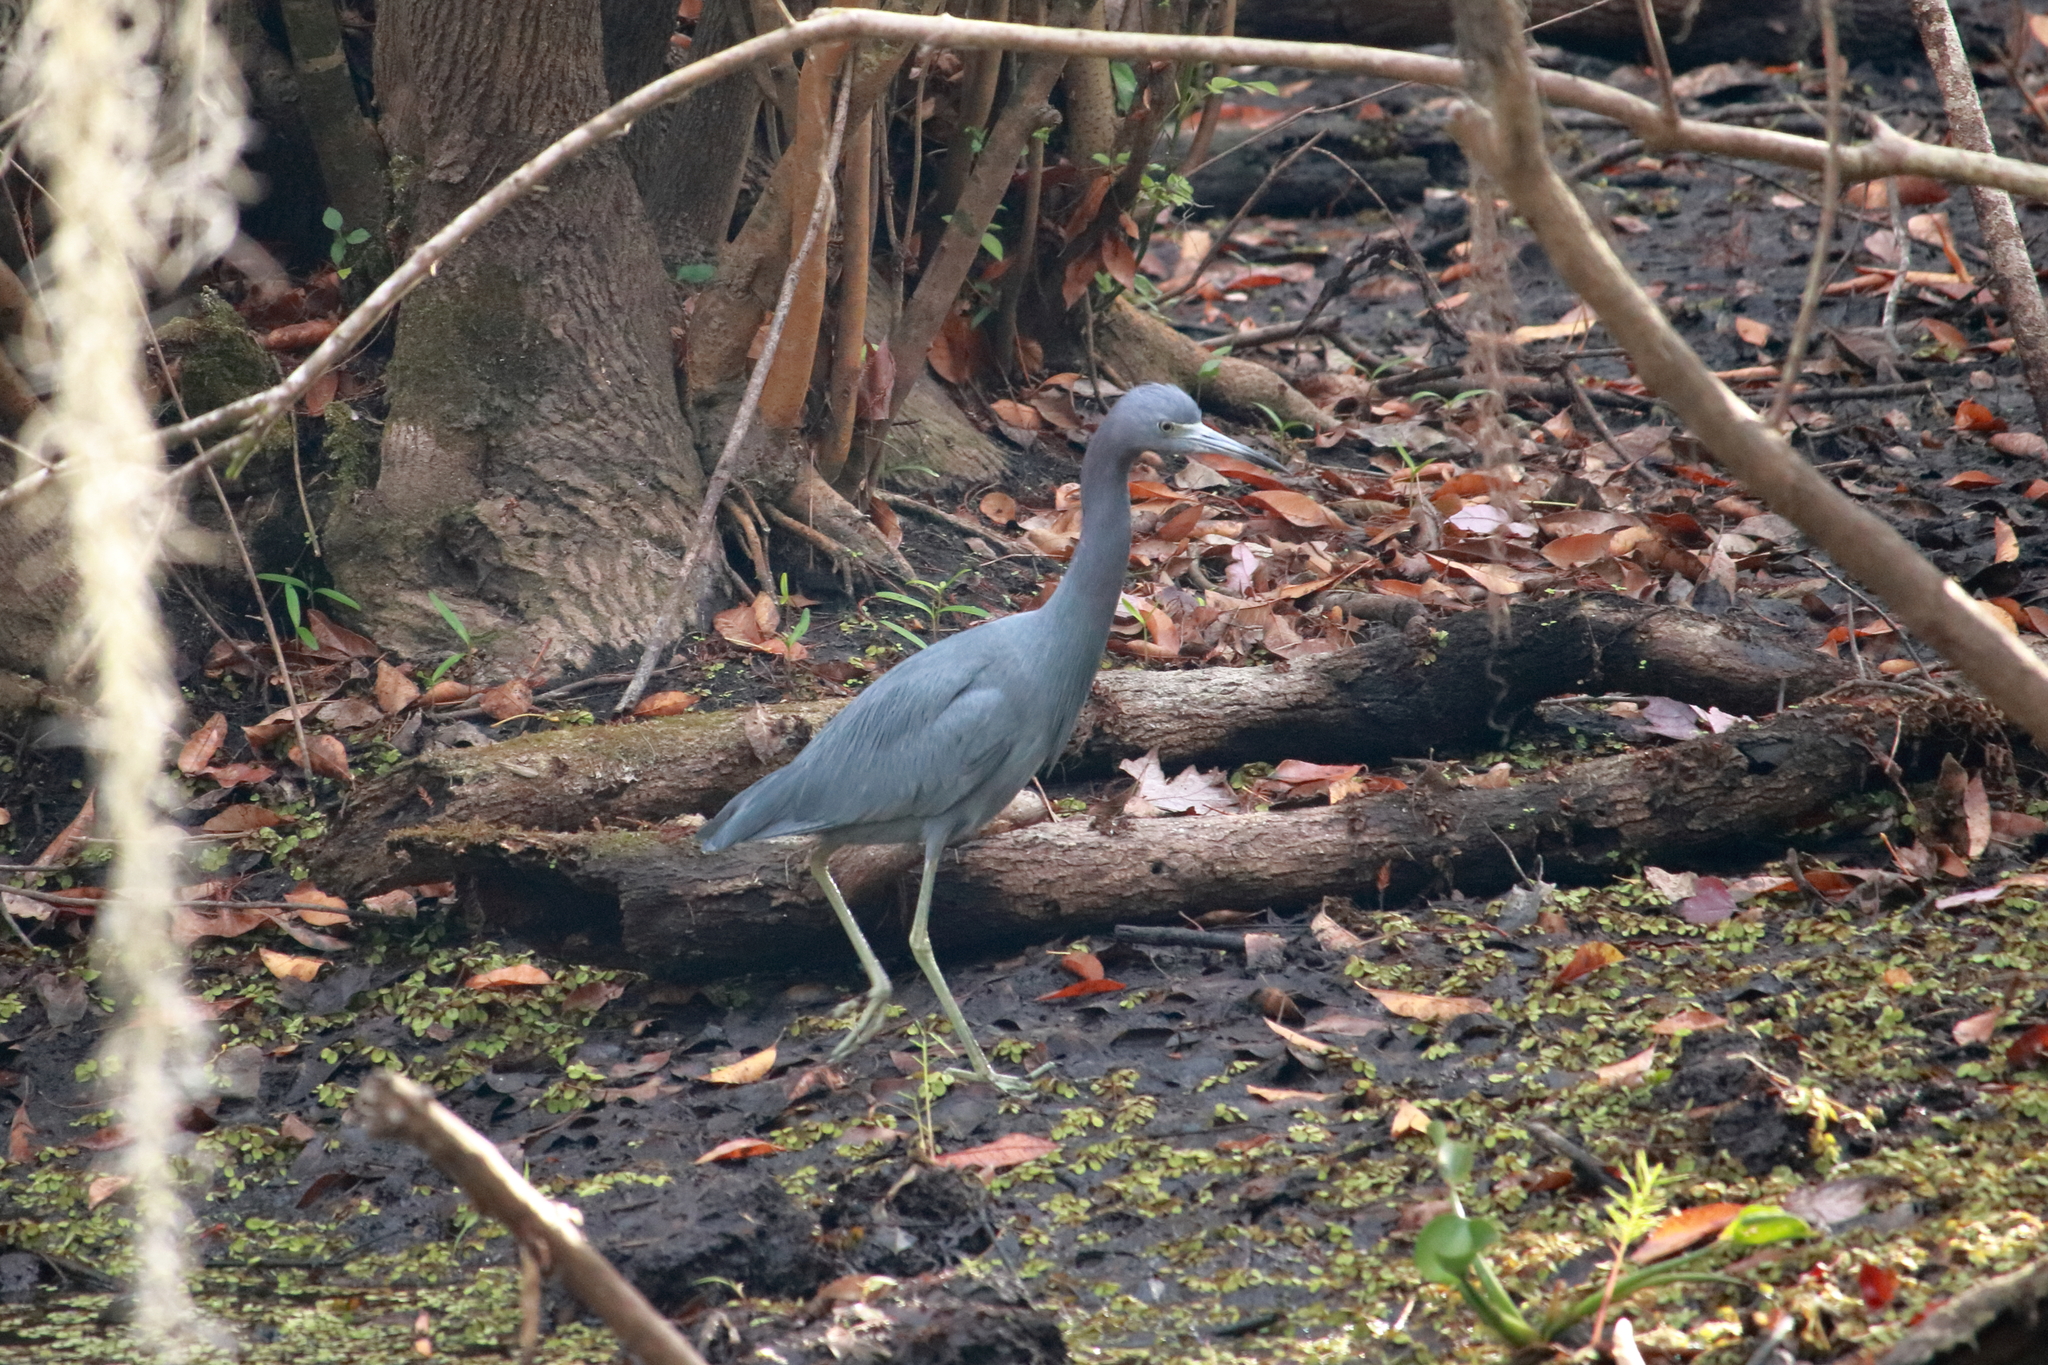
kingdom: Animalia
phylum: Chordata
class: Aves
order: Pelecaniformes
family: Ardeidae
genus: Egretta
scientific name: Egretta caerulea
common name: Little blue heron
